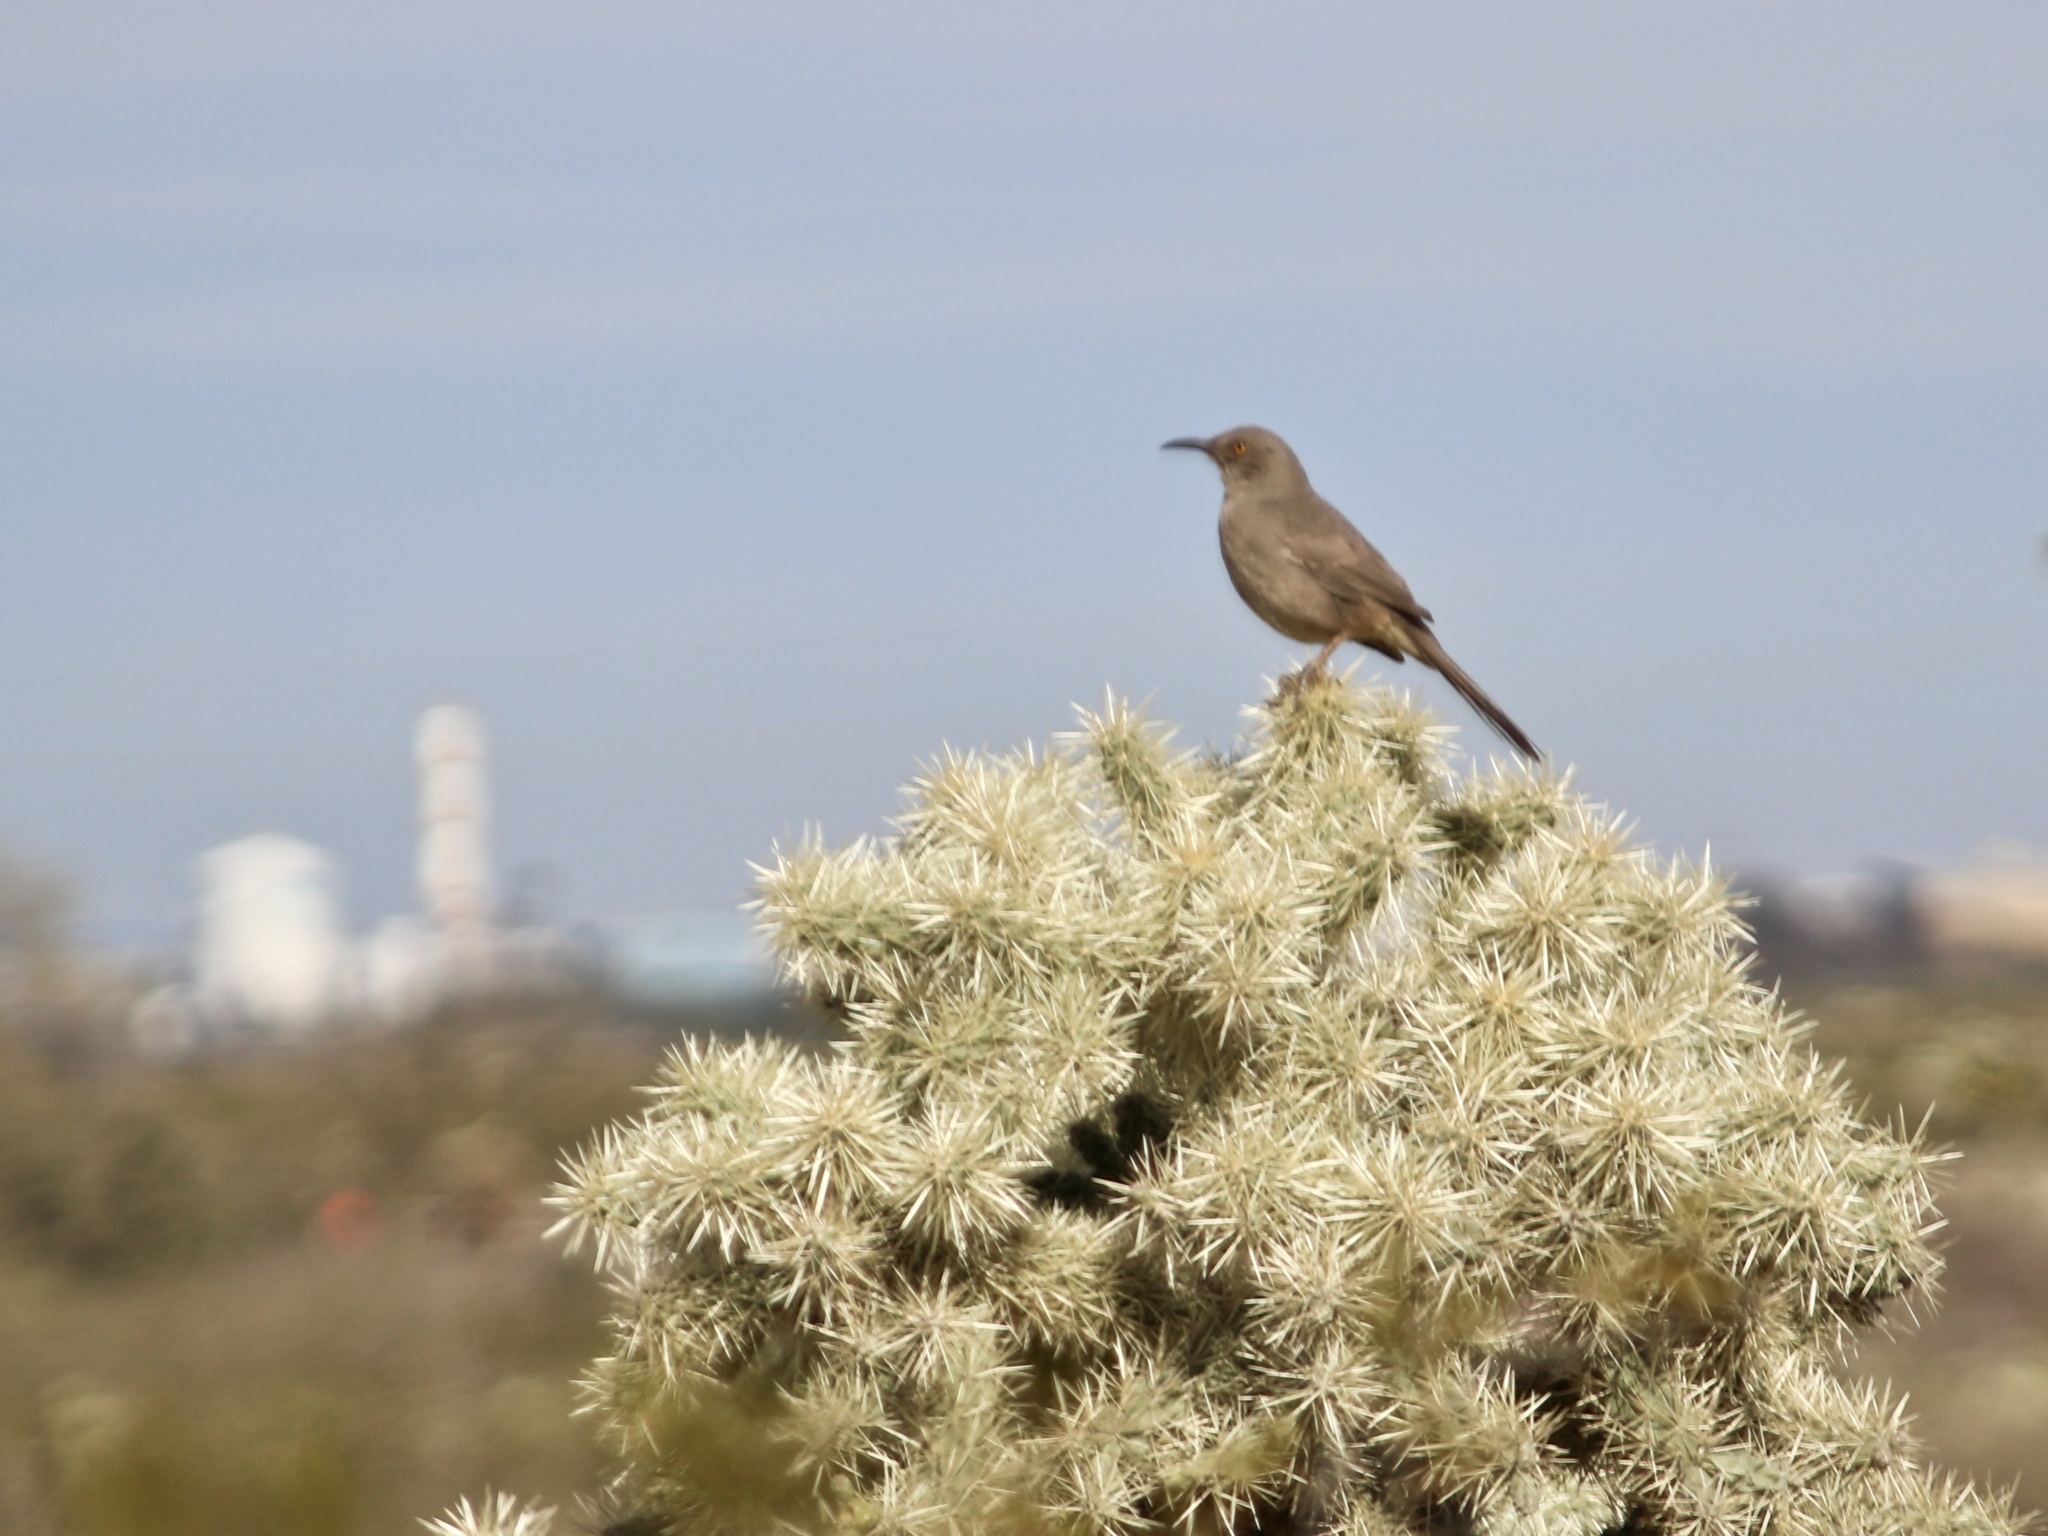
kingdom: Animalia
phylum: Chordata
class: Aves
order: Passeriformes
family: Mimidae
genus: Toxostoma
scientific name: Toxostoma curvirostre
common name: Curve-billed thrasher
